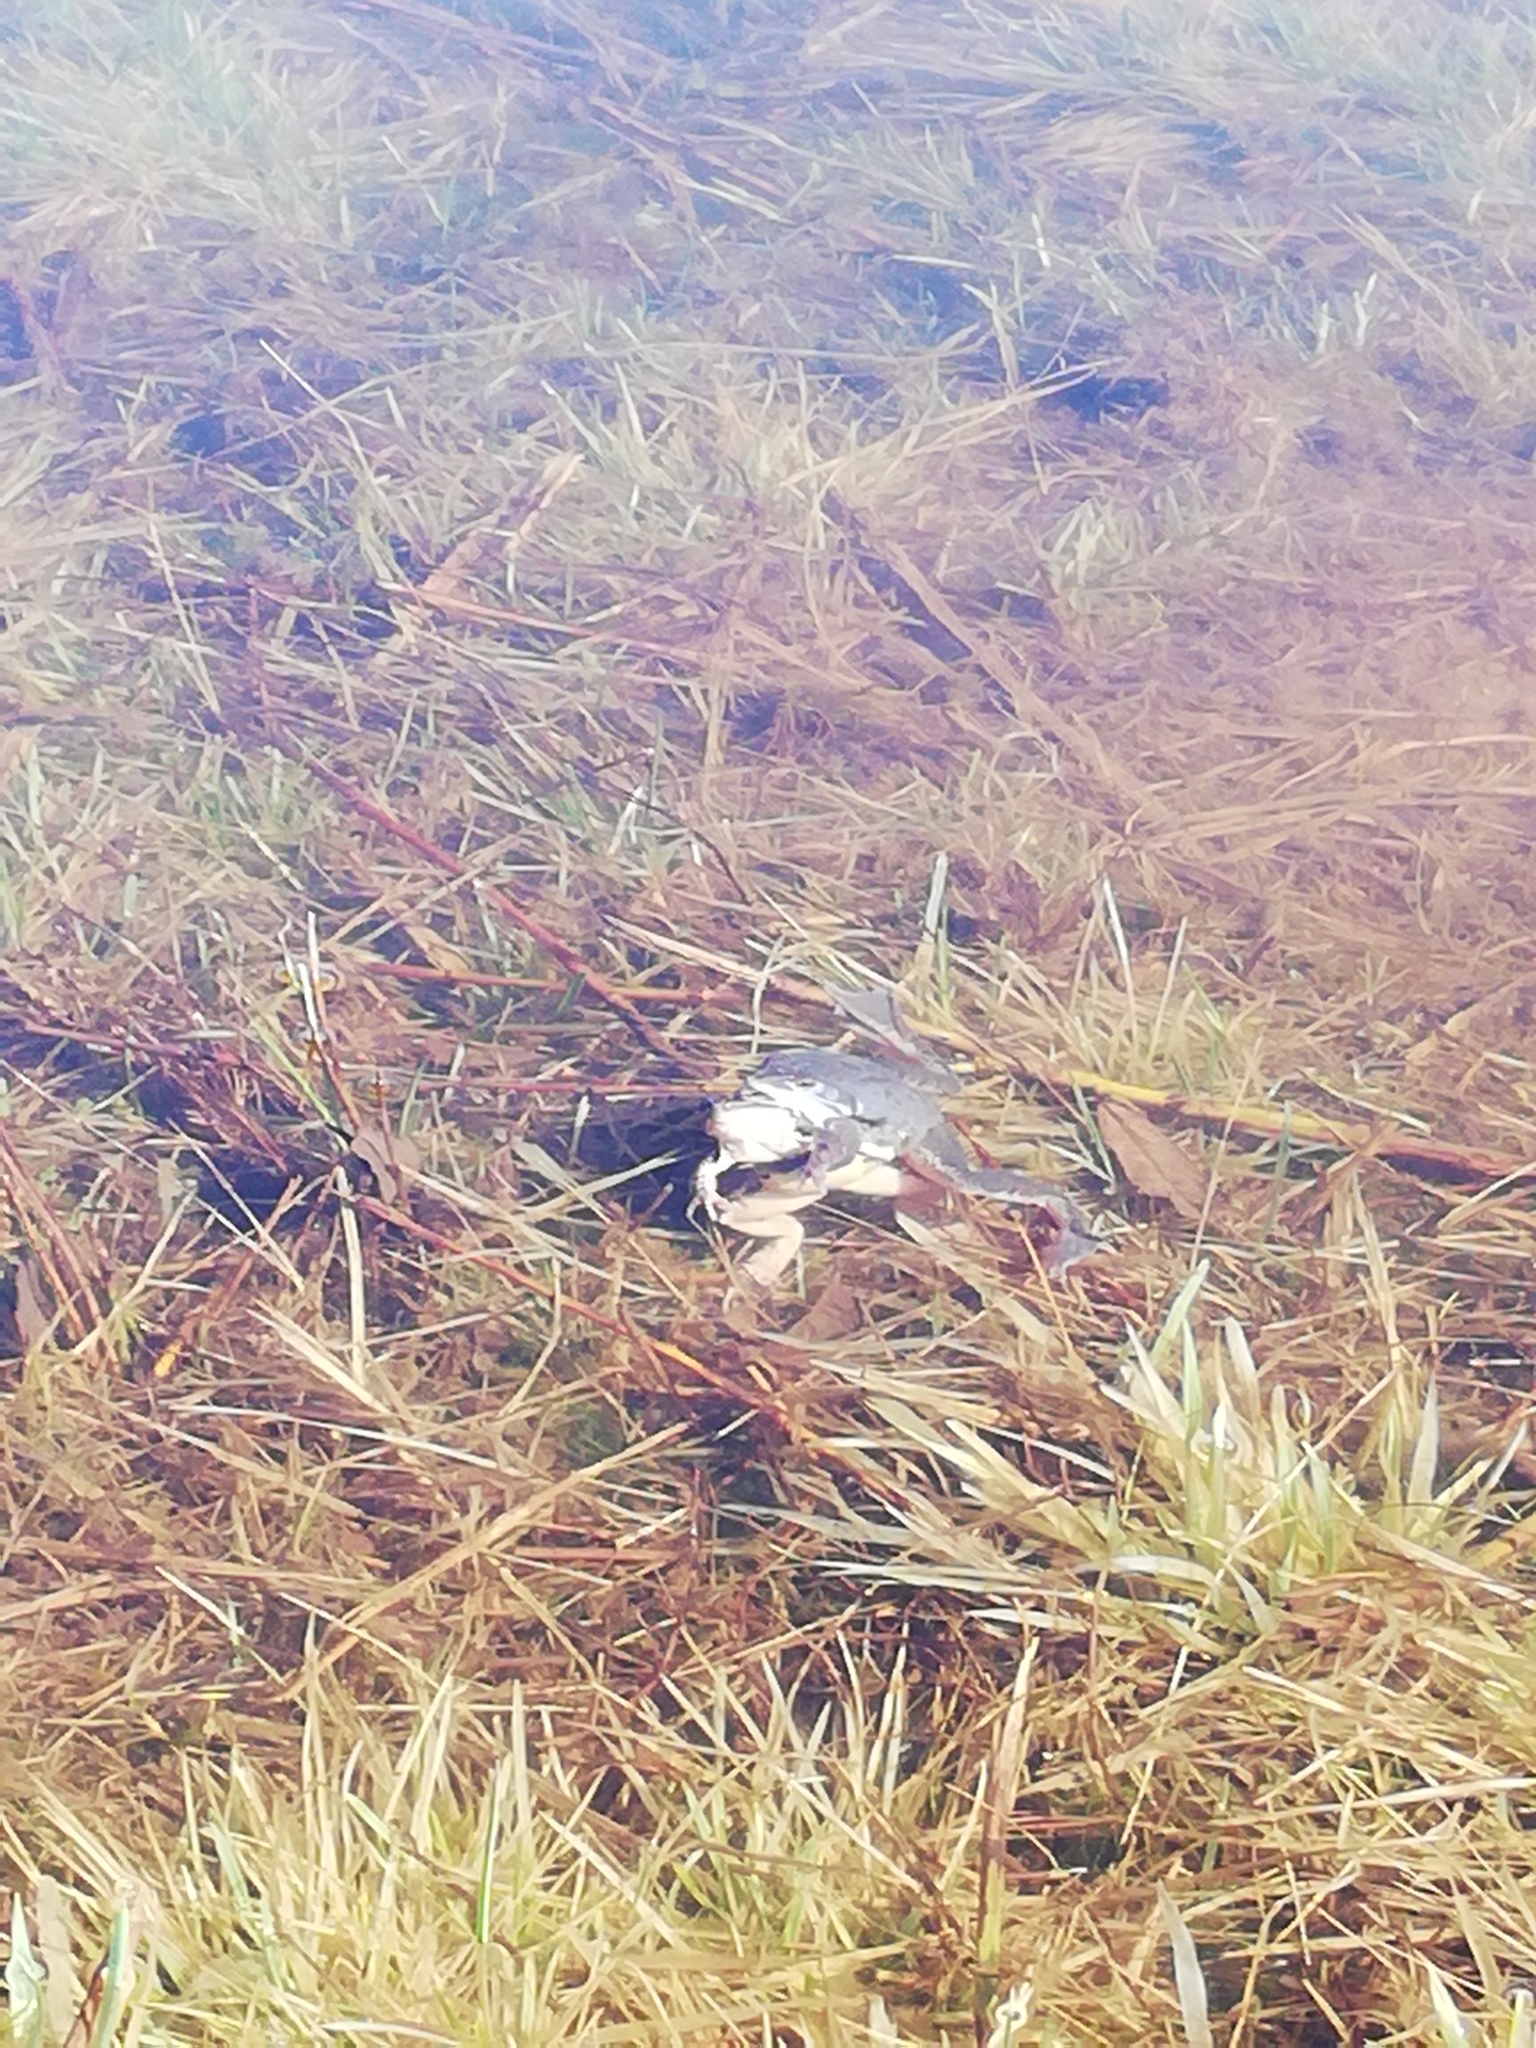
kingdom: Animalia
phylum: Chordata
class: Amphibia
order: Anura
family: Ranidae
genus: Rana
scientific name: Rana arvalis
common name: Moor frog
